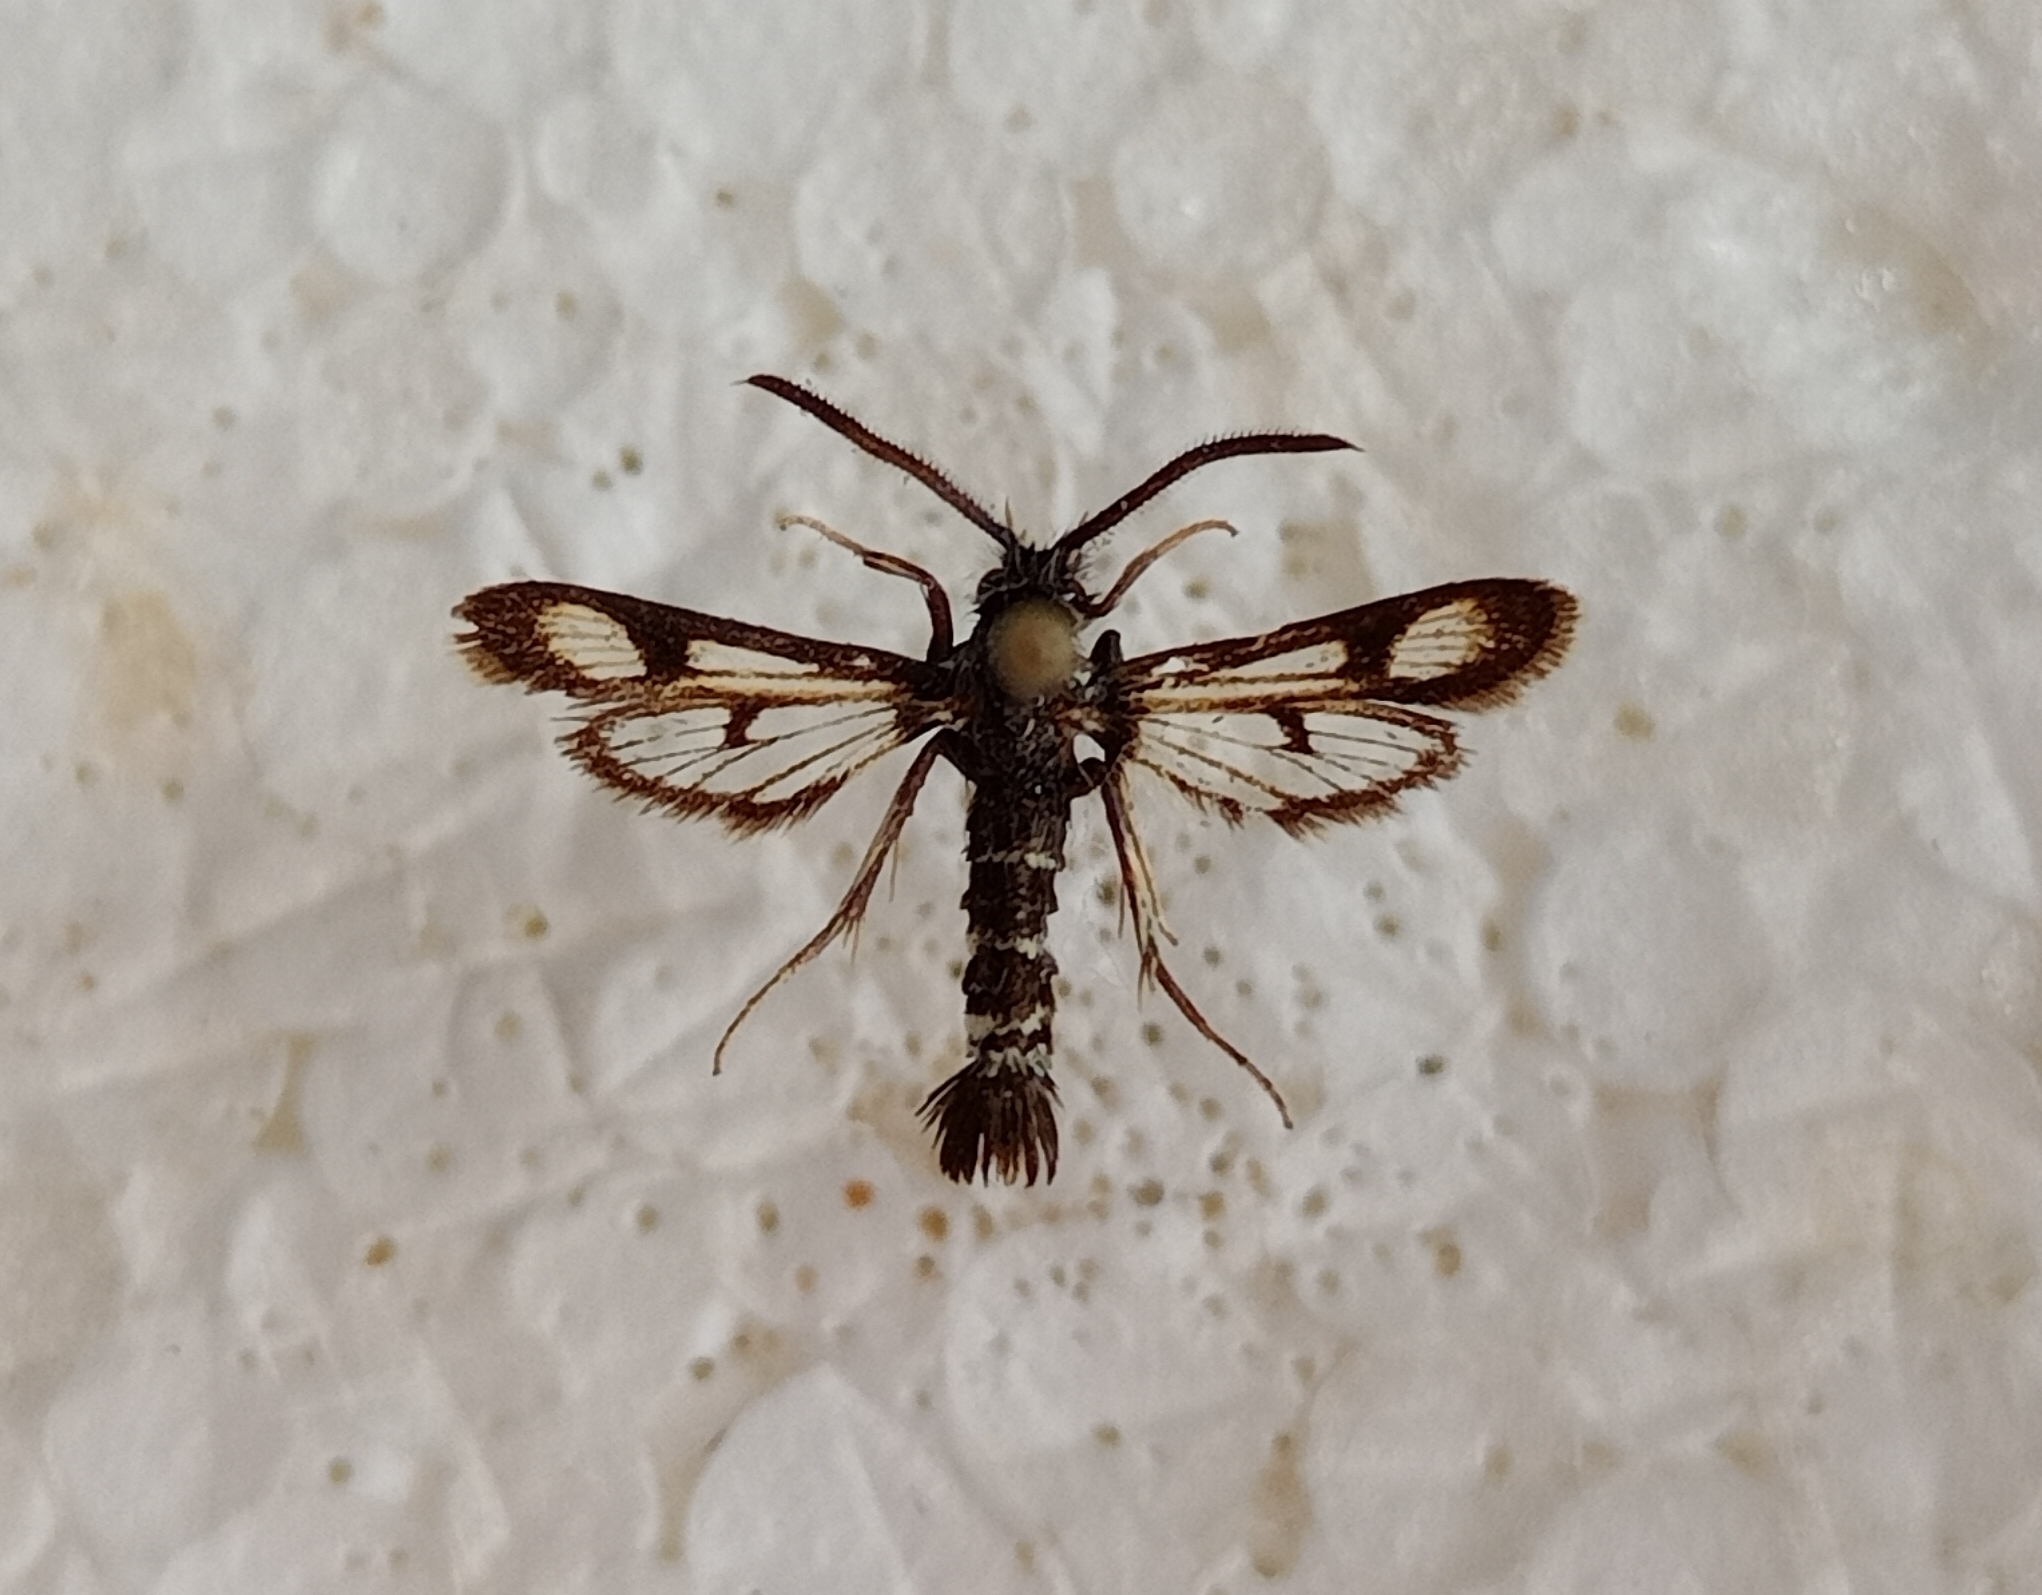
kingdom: Animalia
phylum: Arthropoda
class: Insecta
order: Lepidoptera
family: Sesiidae
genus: Euhagena
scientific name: Euhagena palariformis
